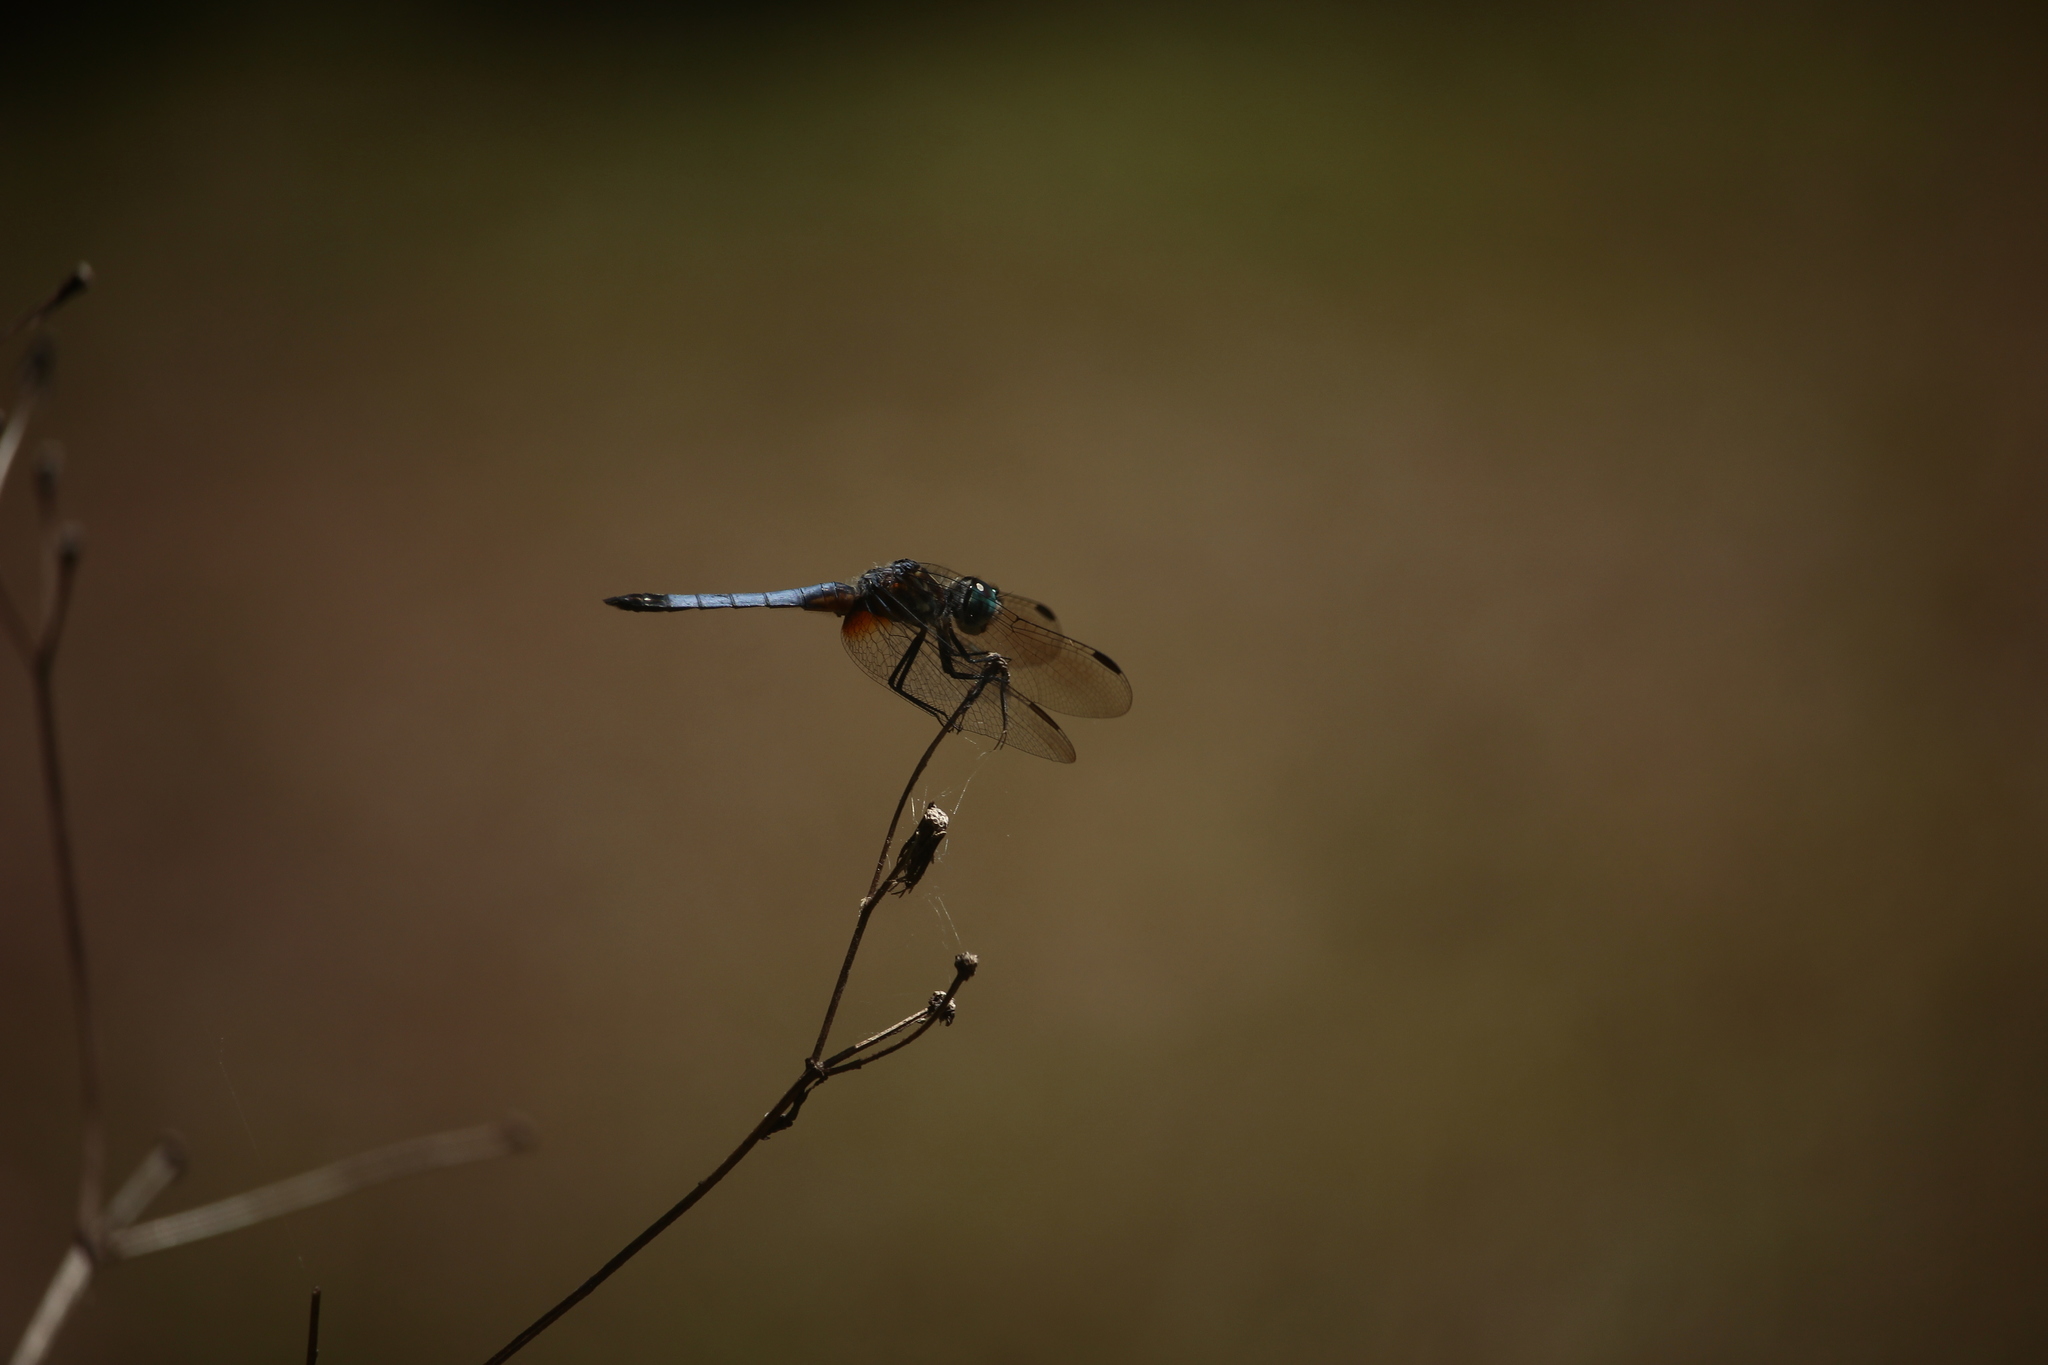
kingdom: Animalia
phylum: Arthropoda
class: Insecta
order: Odonata
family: Libellulidae
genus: Pachydiplax
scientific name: Pachydiplax longipennis
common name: Blue dasher
